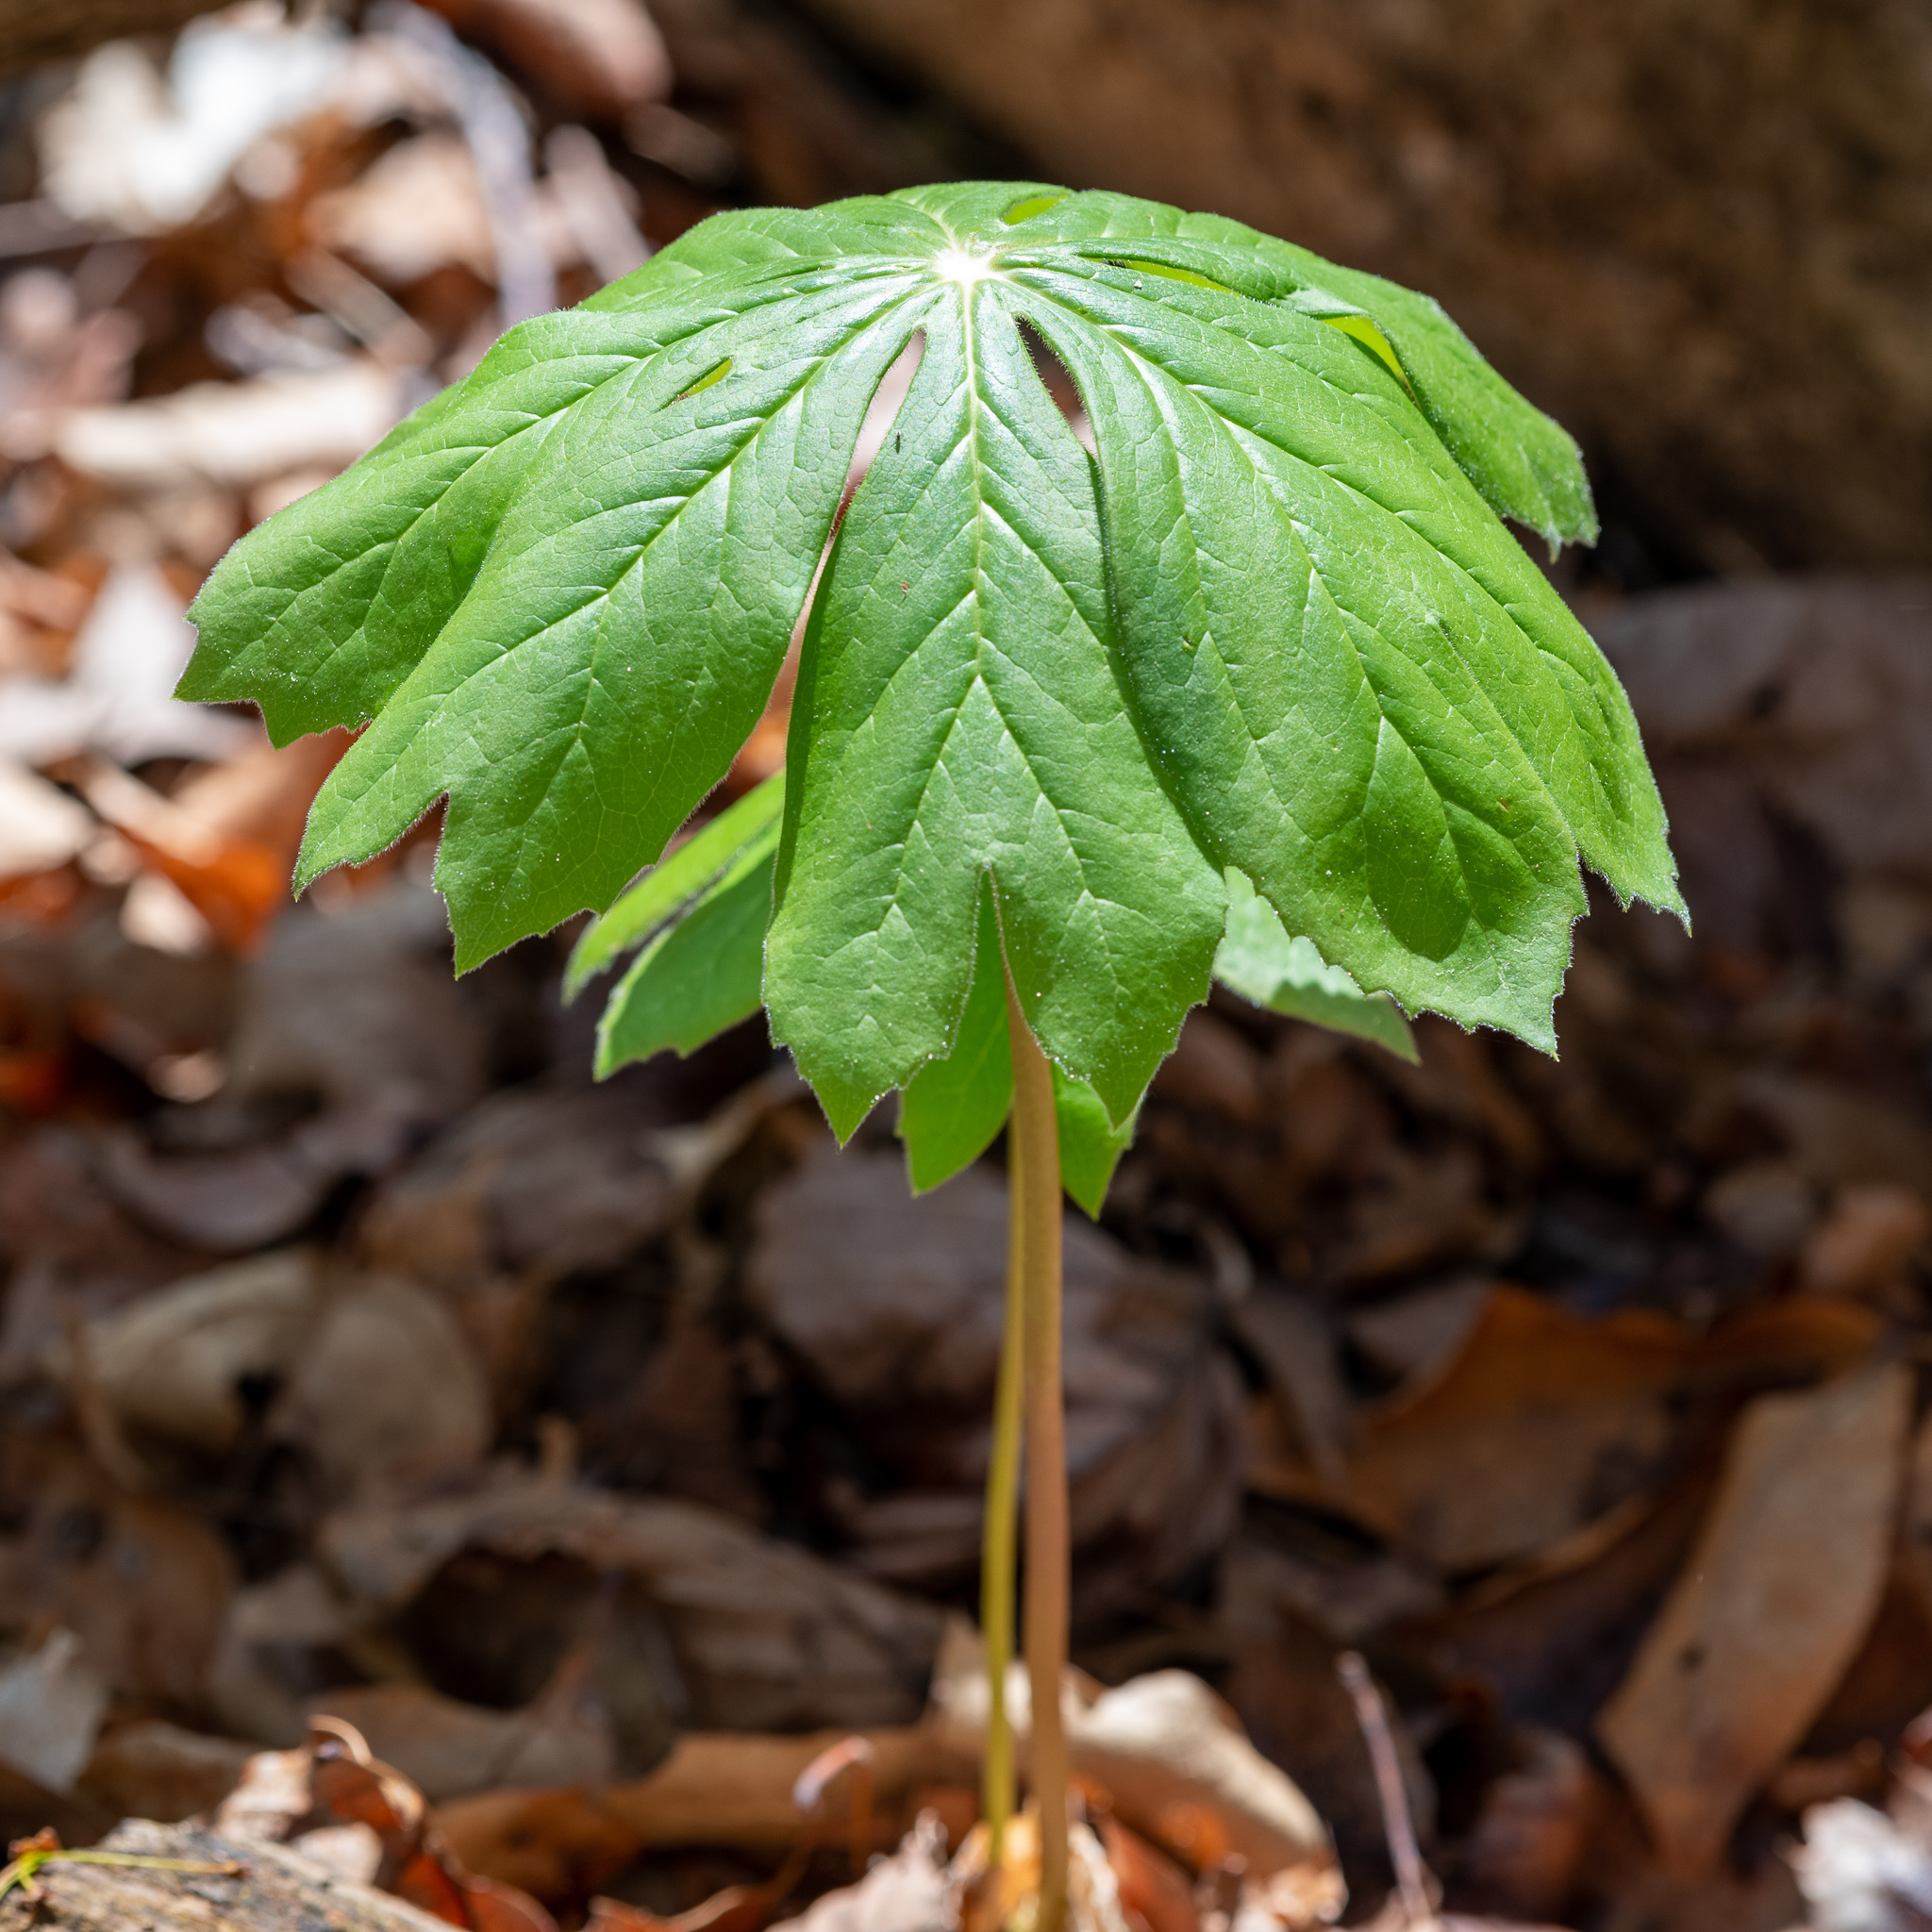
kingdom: Plantae
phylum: Tracheophyta
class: Magnoliopsida
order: Ranunculales
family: Berberidaceae
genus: Podophyllum
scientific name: Podophyllum peltatum
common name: Wild mandrake
